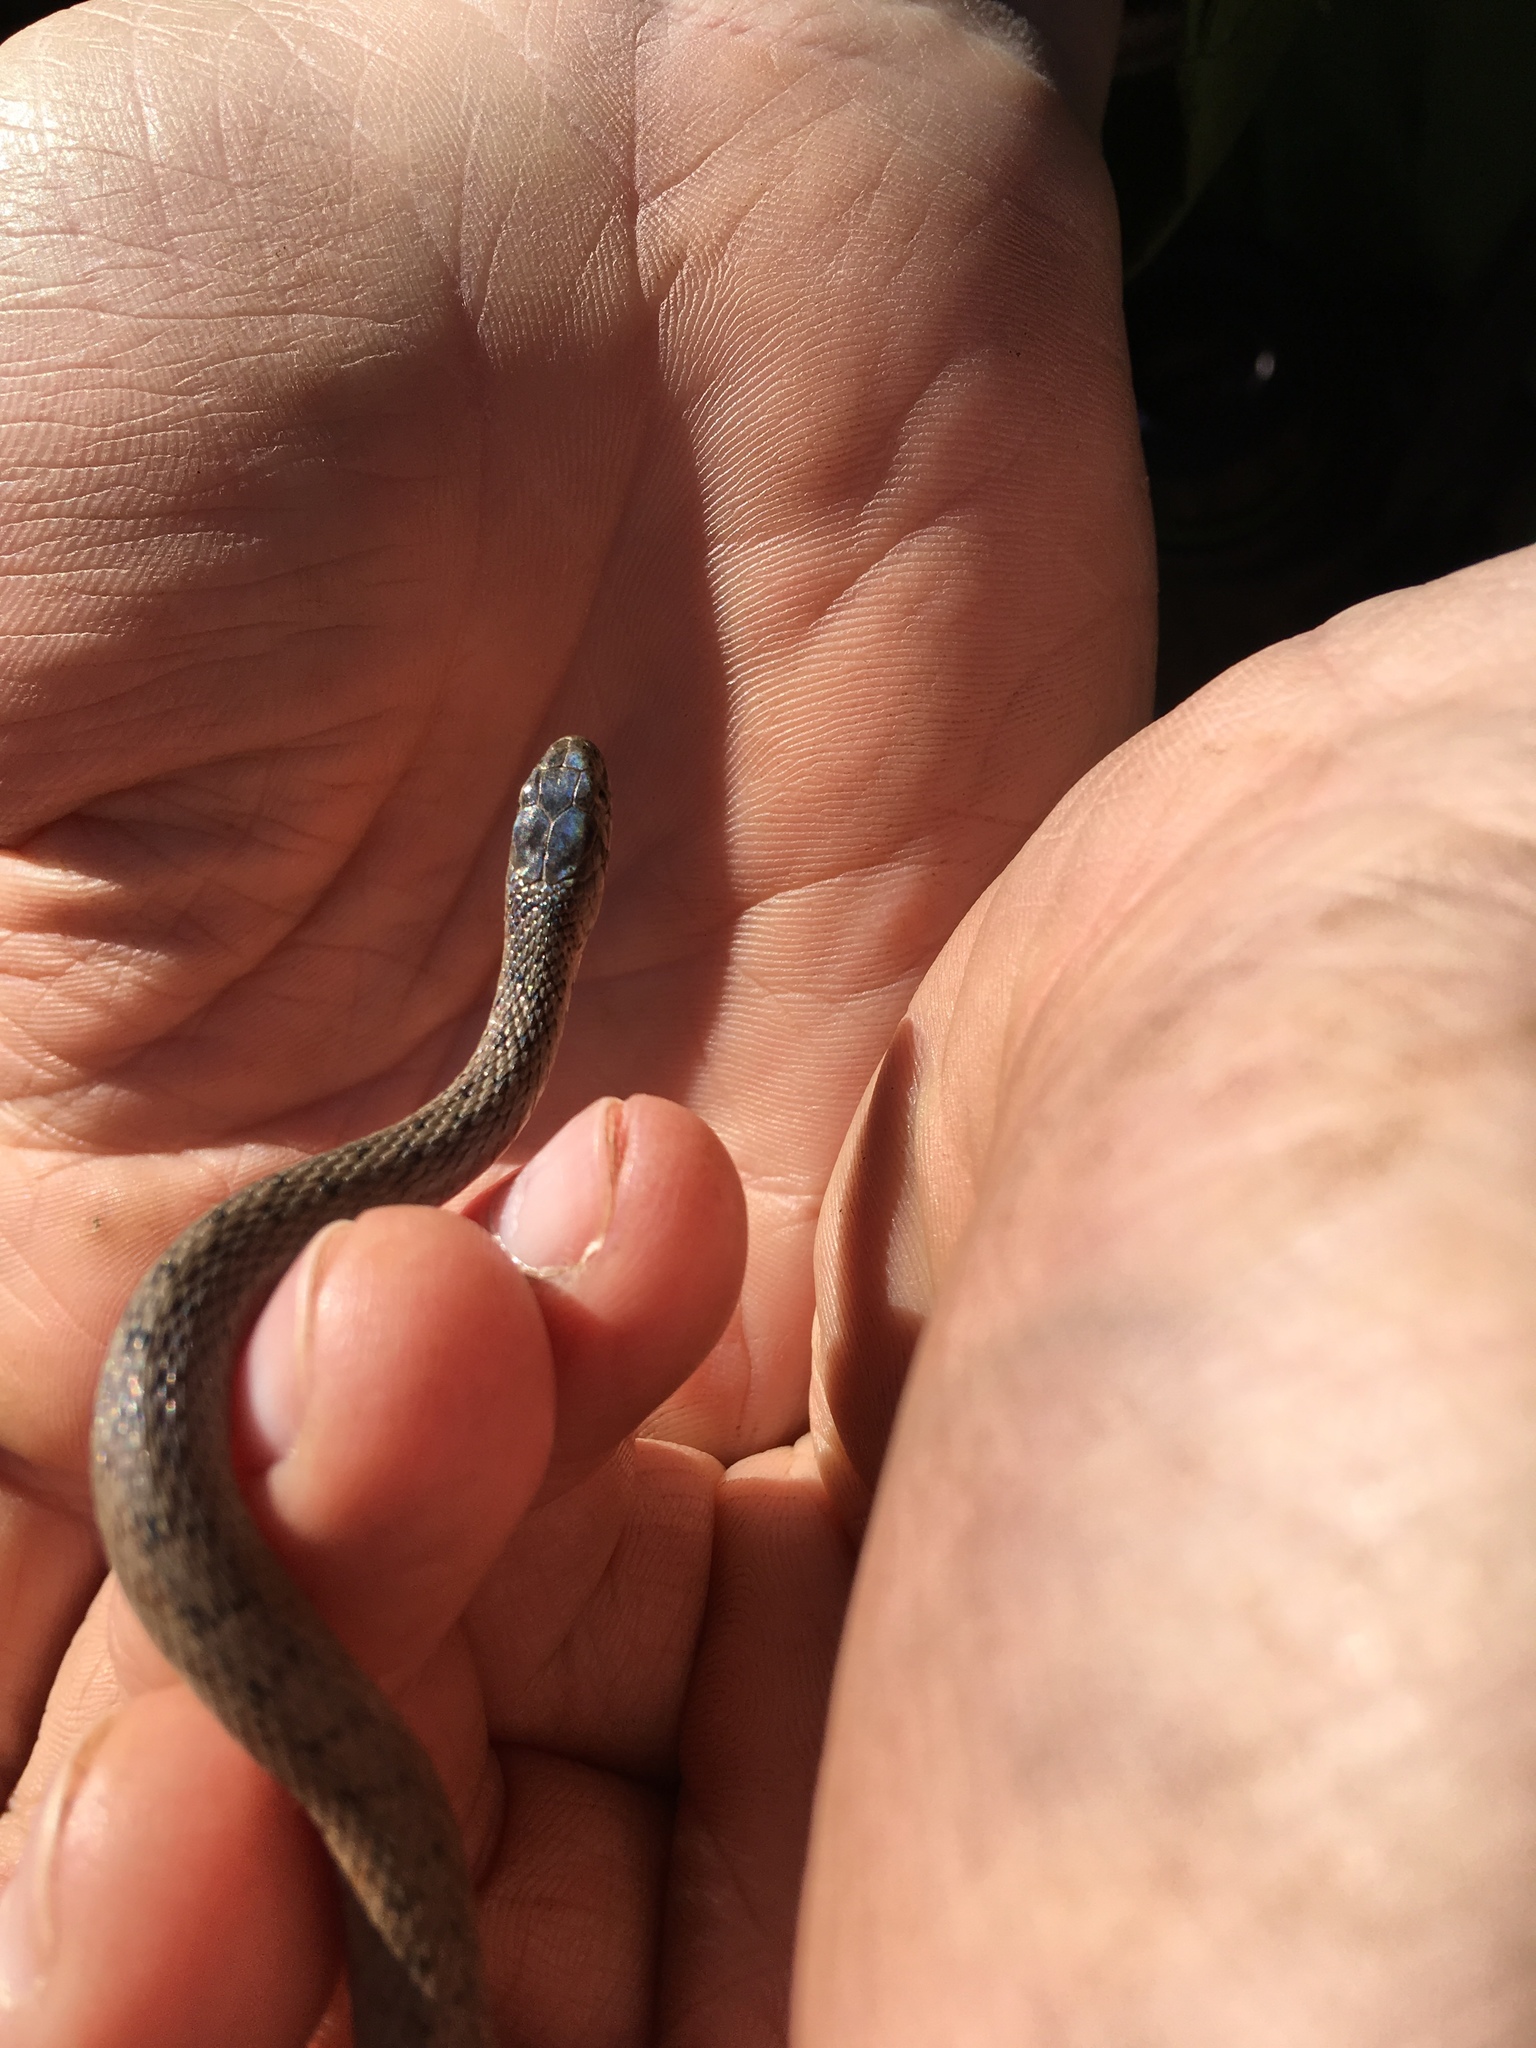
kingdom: Animalia
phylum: Chordata
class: Squamata
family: Colubridae
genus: Storeria
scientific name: Storeria dekayi
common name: (dekay’s) brown snake
